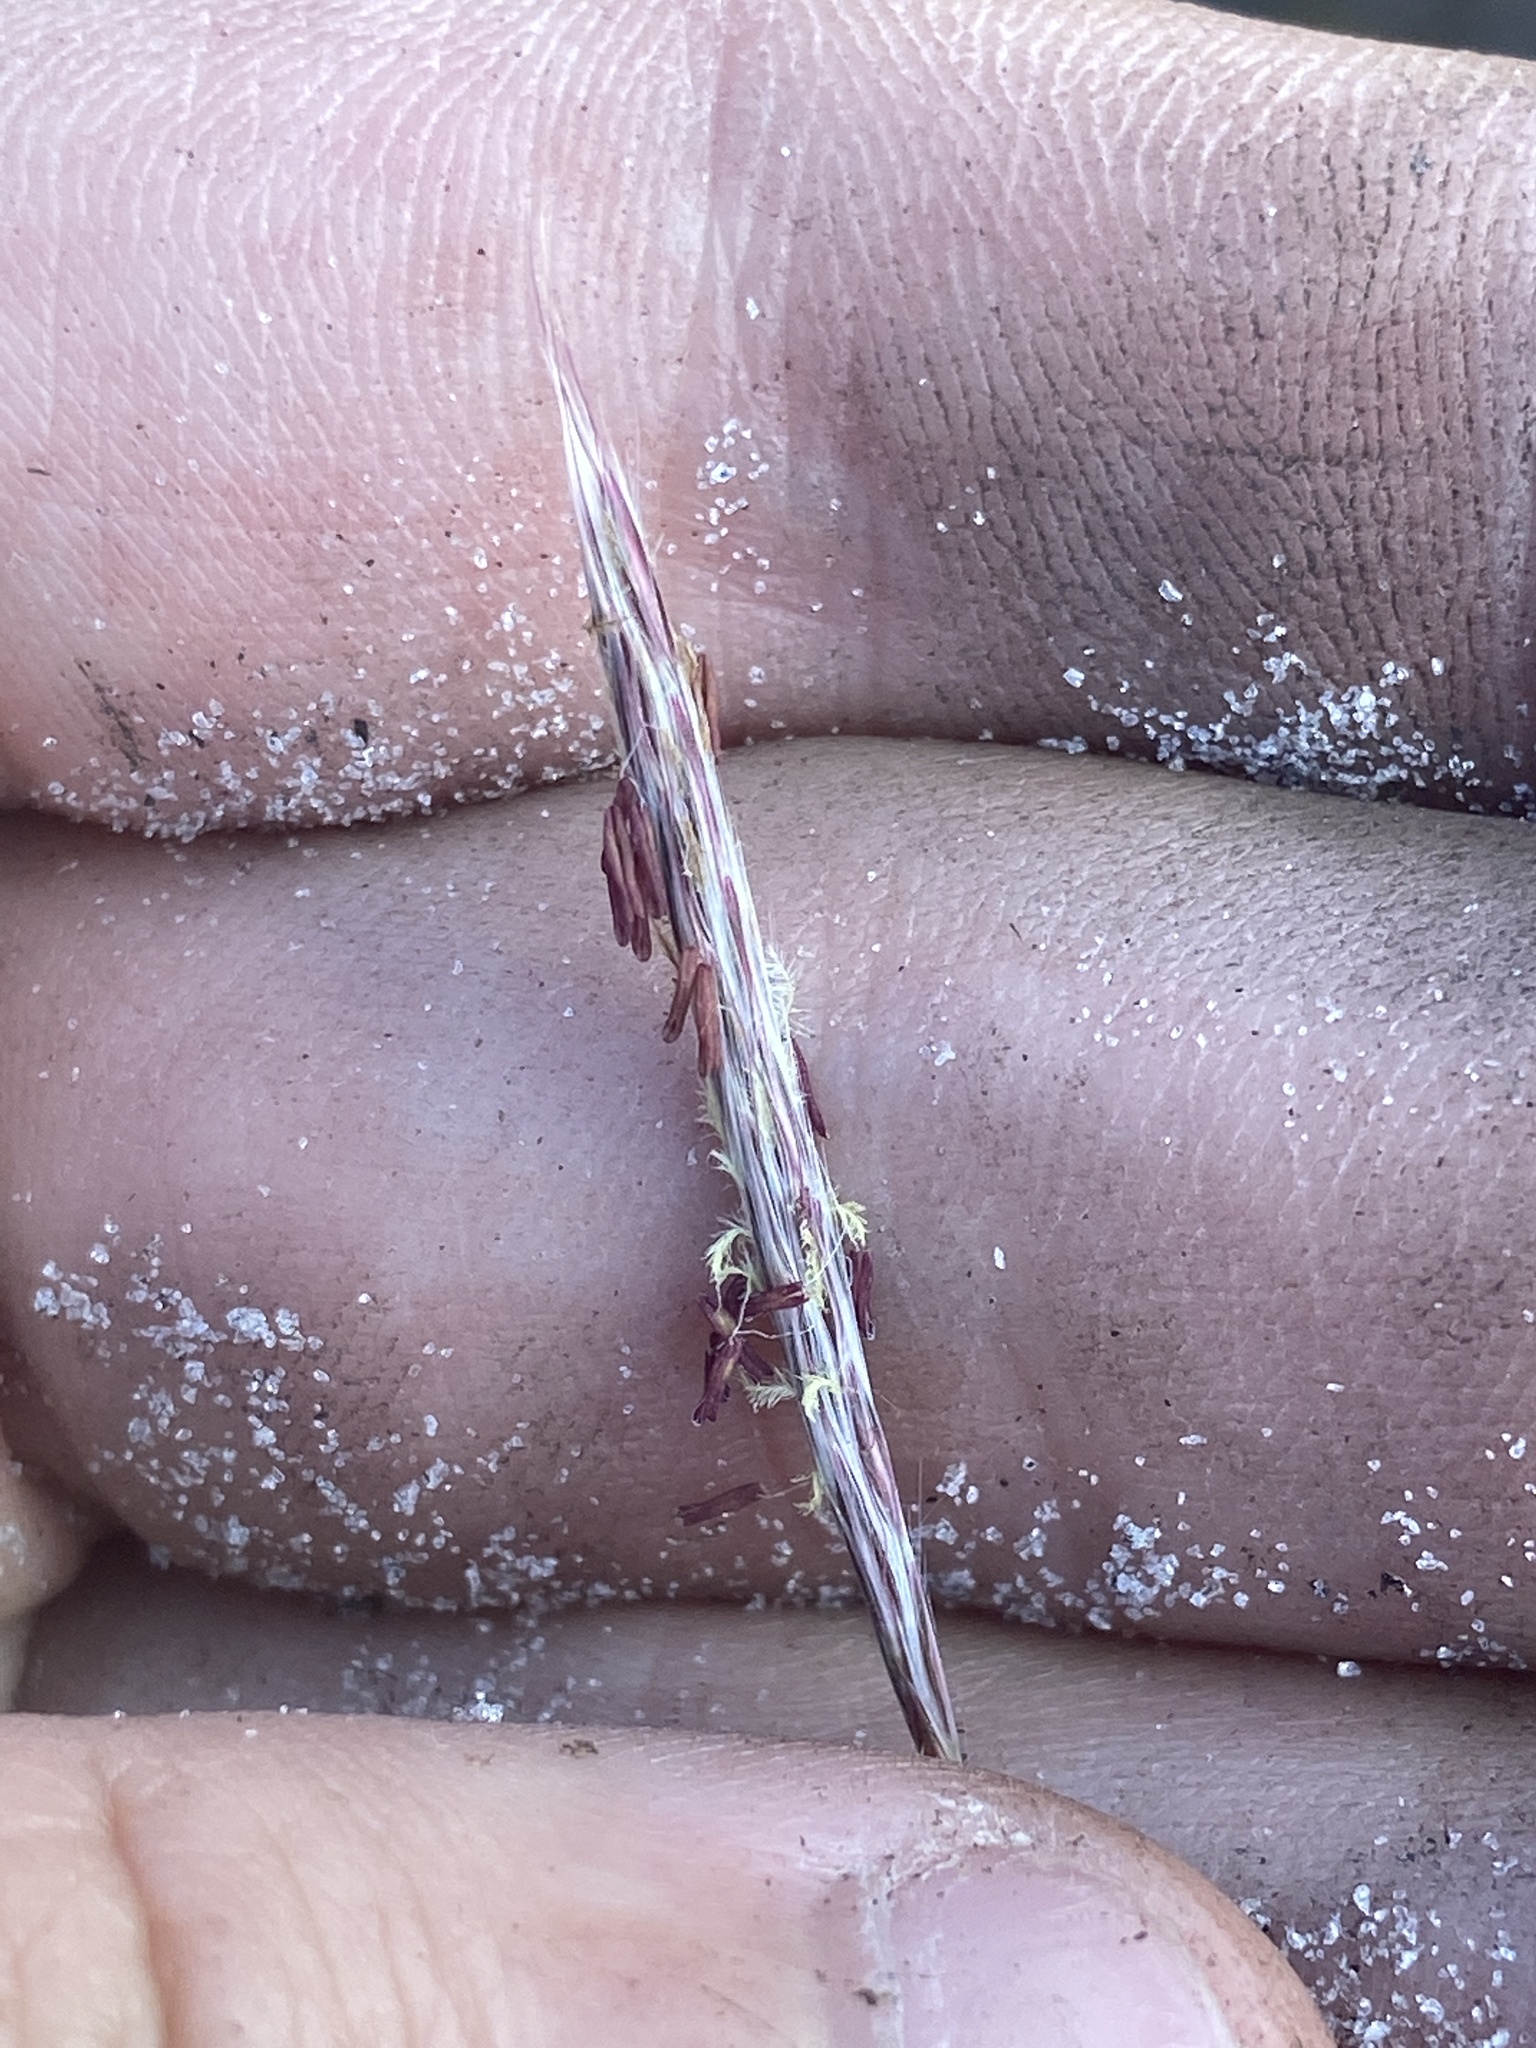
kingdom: Plantae
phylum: Tracheophyta
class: Liliopsida
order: Poales
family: Poaceae
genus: Andropogon
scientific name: Andropogon cumulicola
